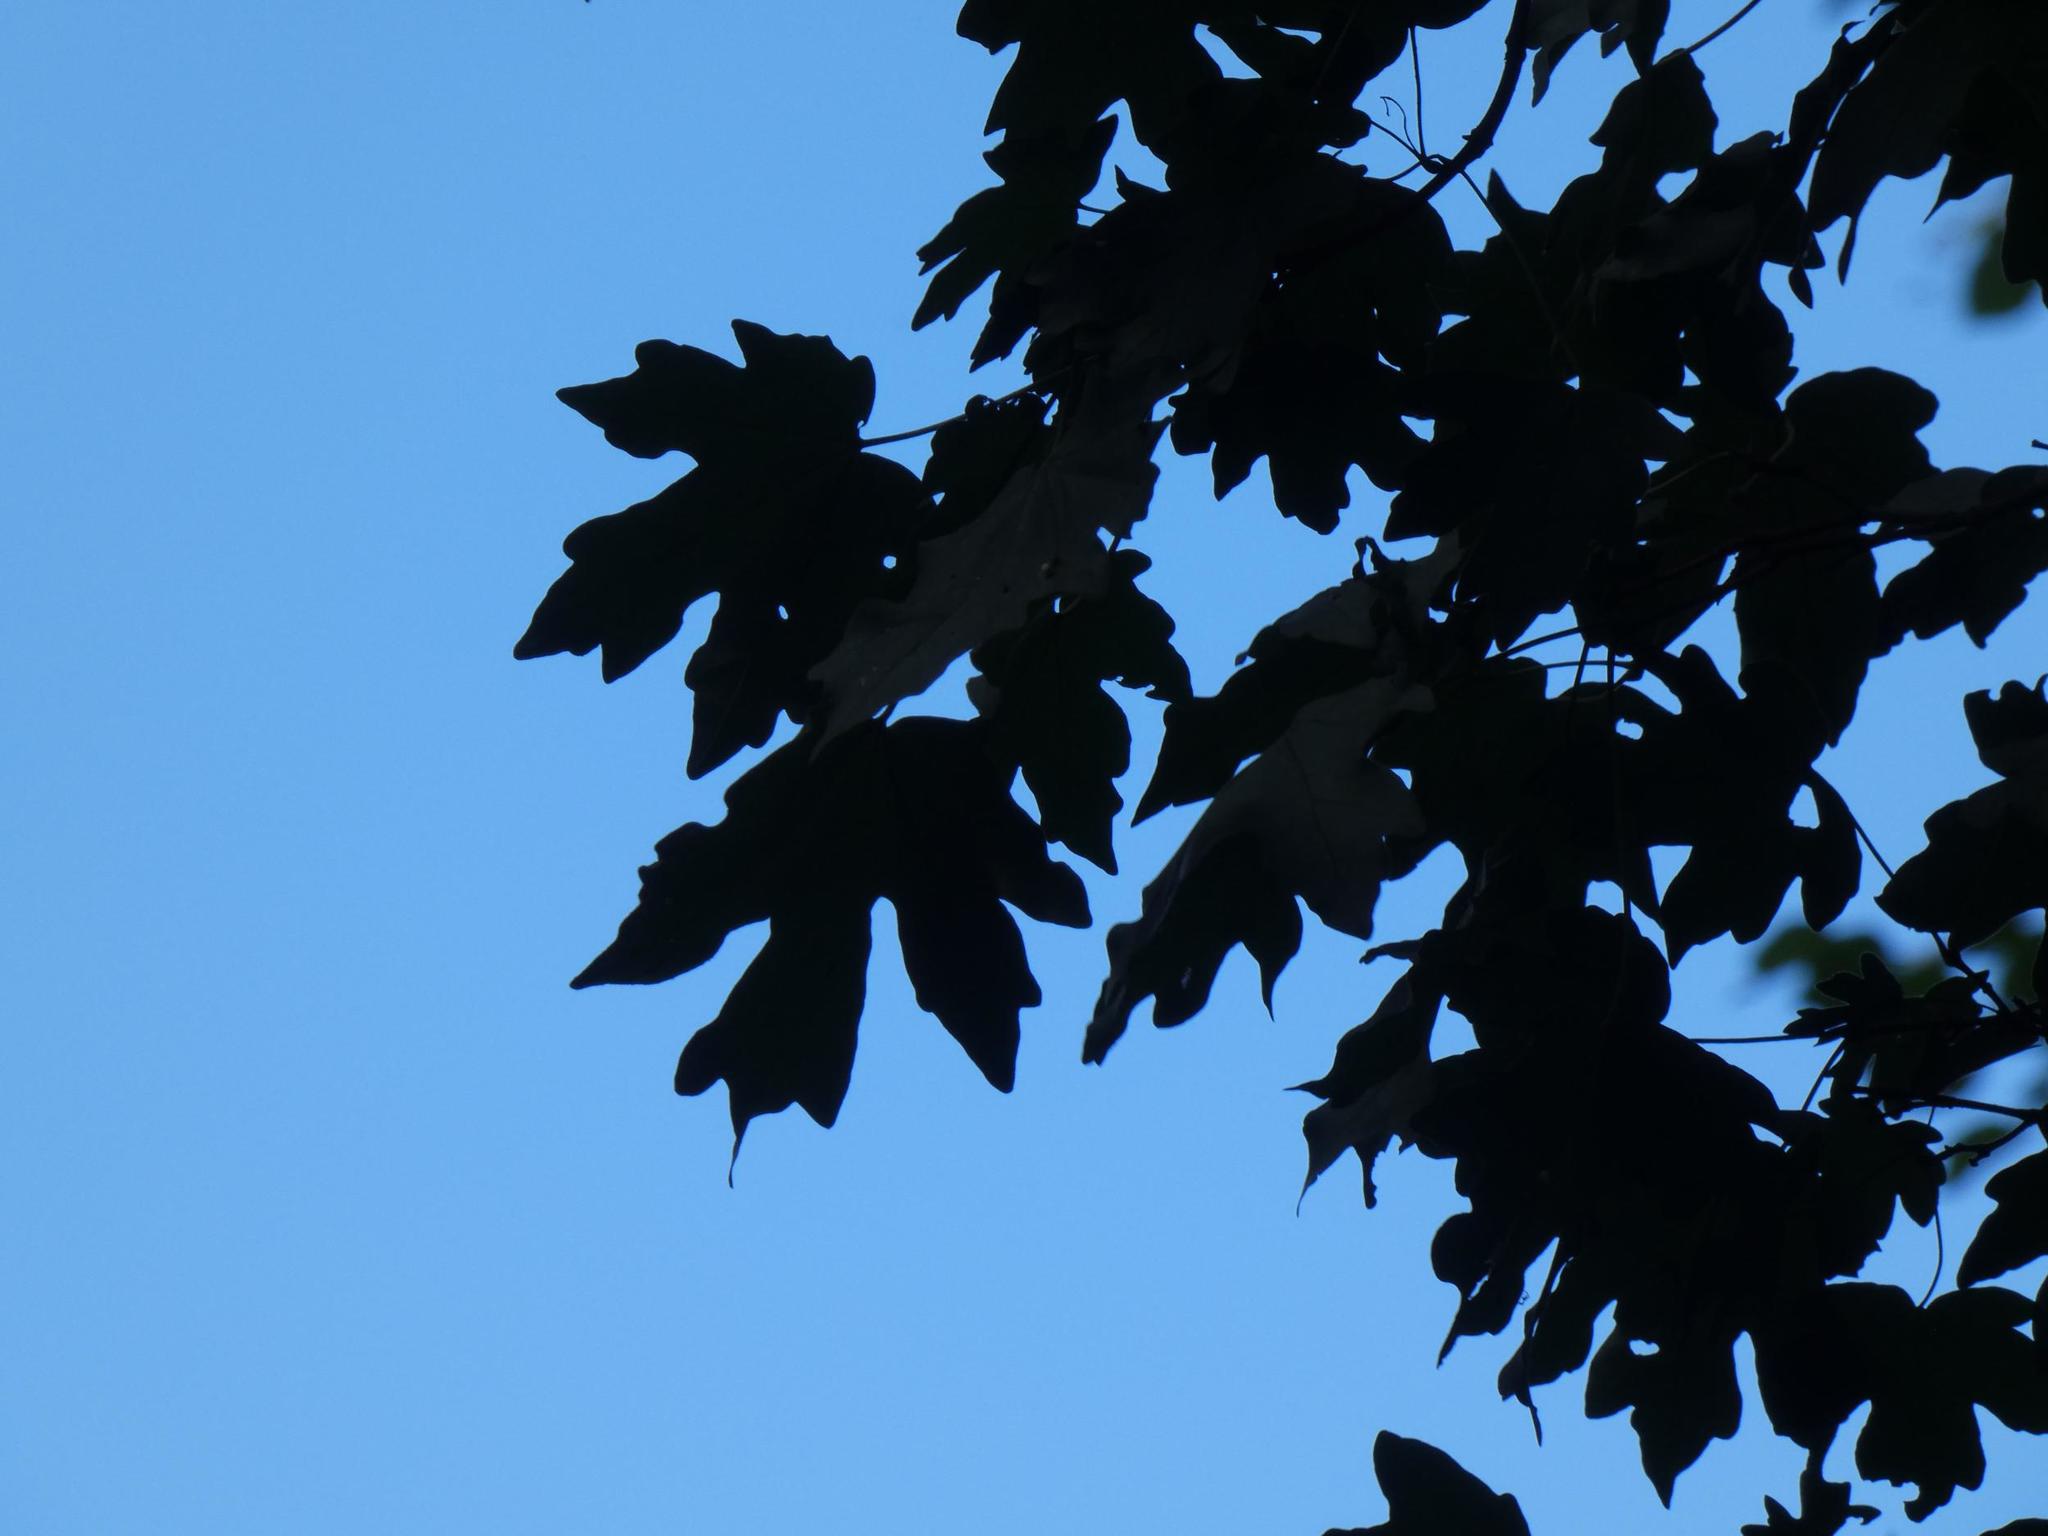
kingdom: Plantae
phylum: Tracheophyta
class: Magnoliopsida
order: Sapindales
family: Sapindaceae
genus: Acer
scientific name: Acer campestre
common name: Field maple
